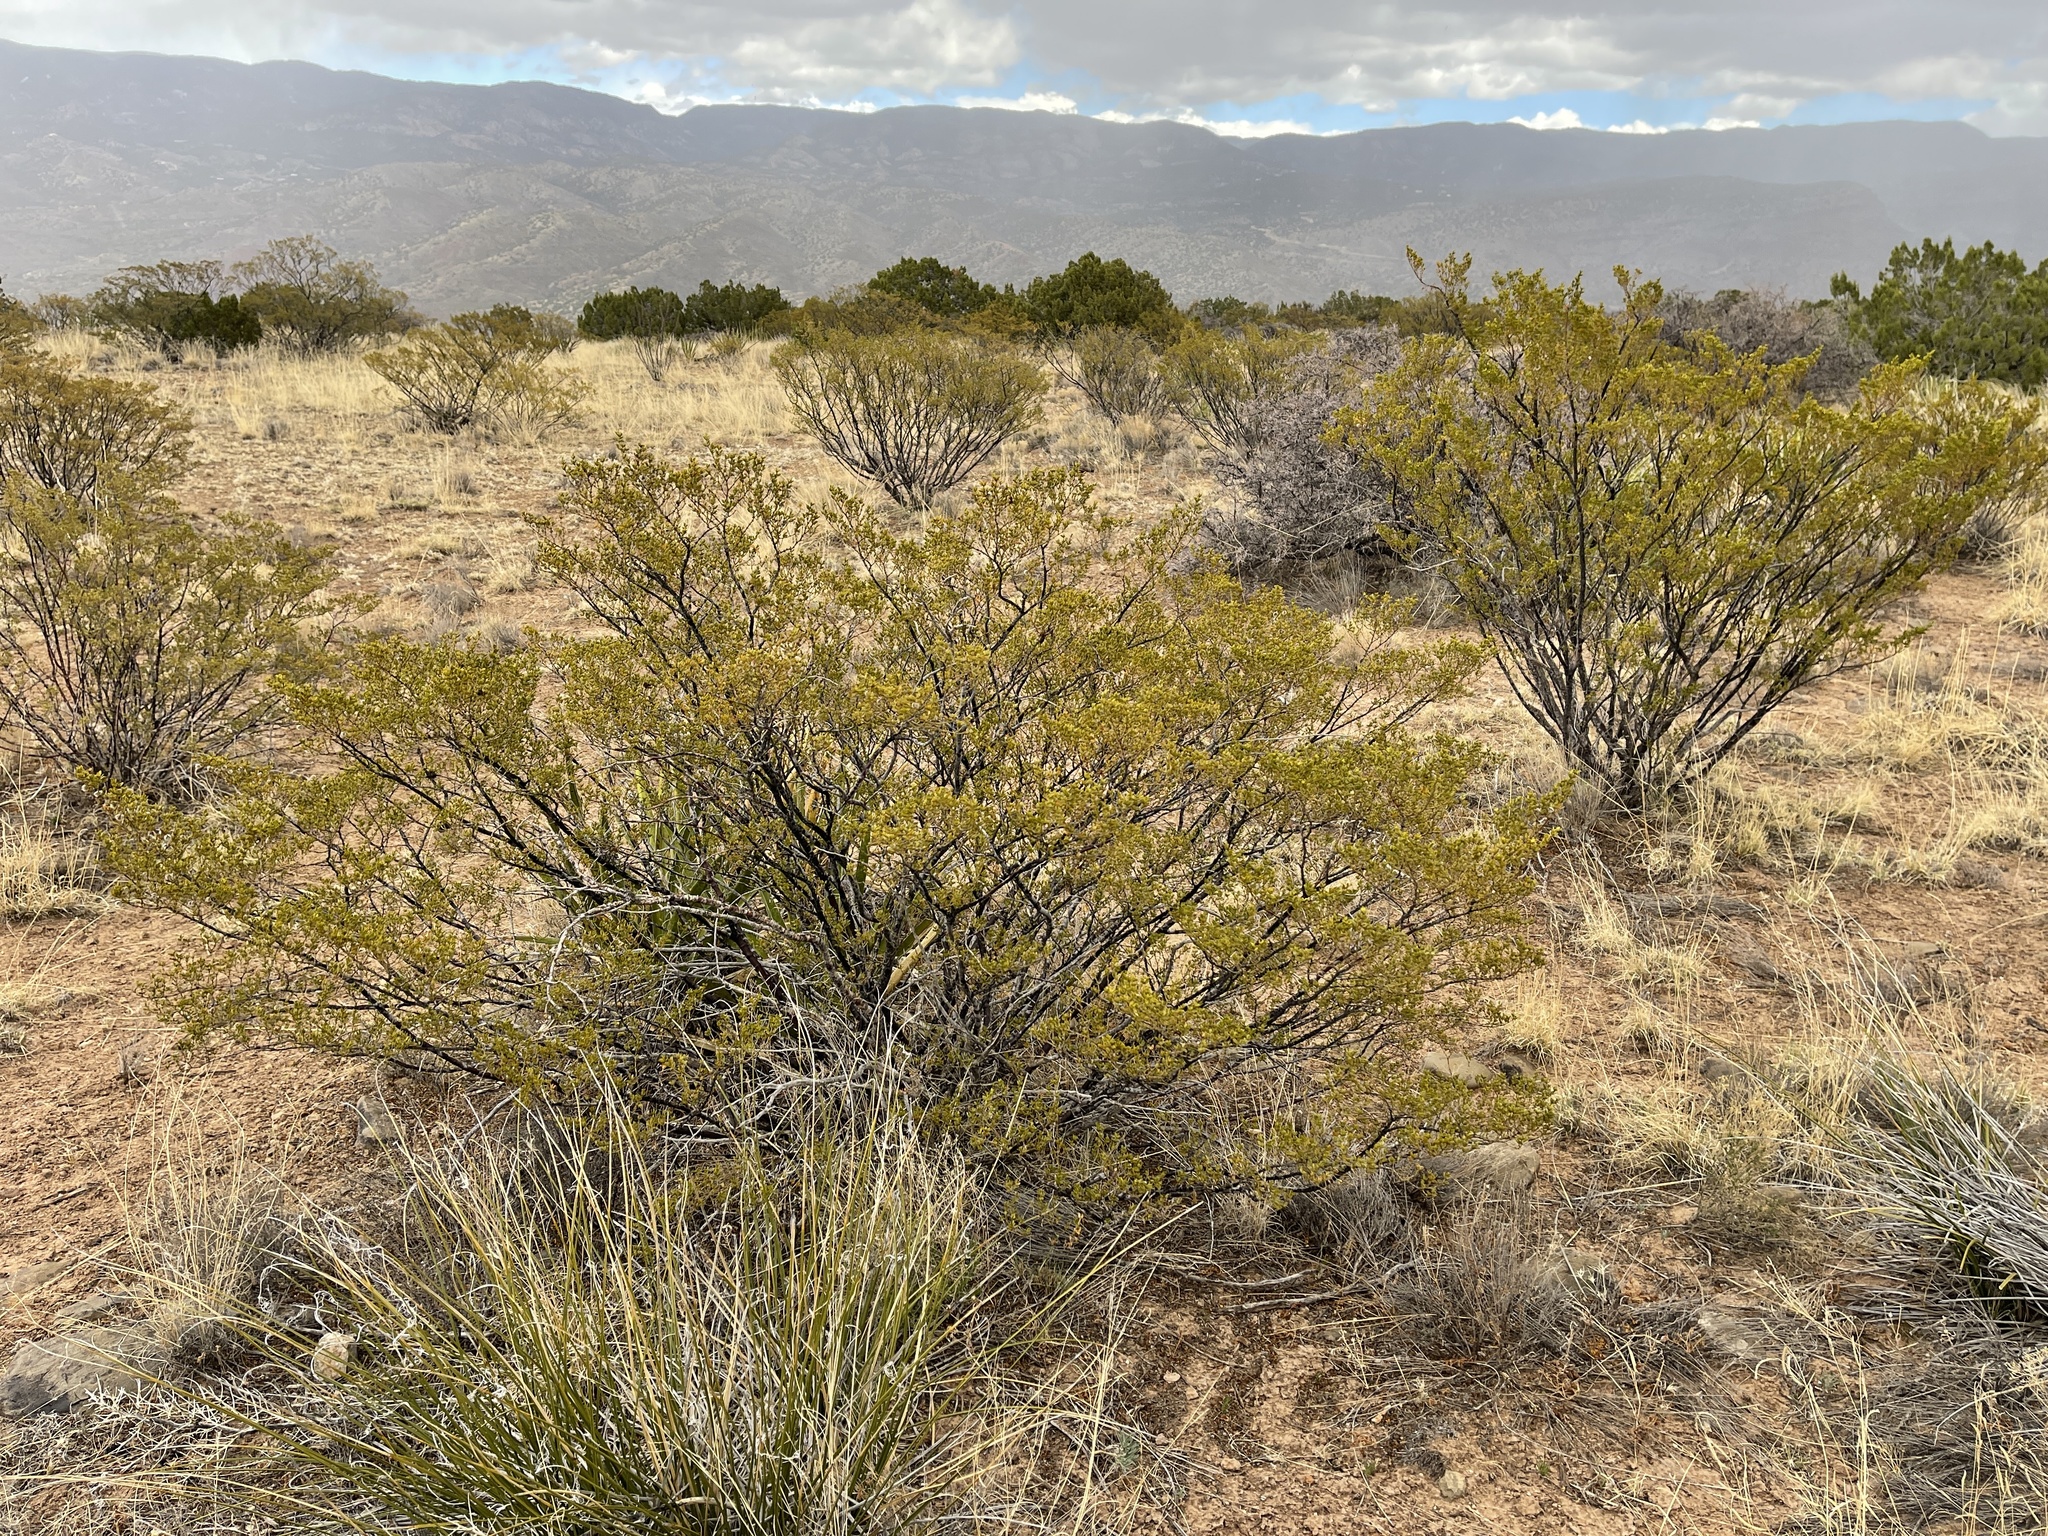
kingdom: Plantae
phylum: Tracheophyta
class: Magnoliopsida
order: Zygophyllales
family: Zygophyllaceae
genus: Larrea
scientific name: Larrea tridentata
